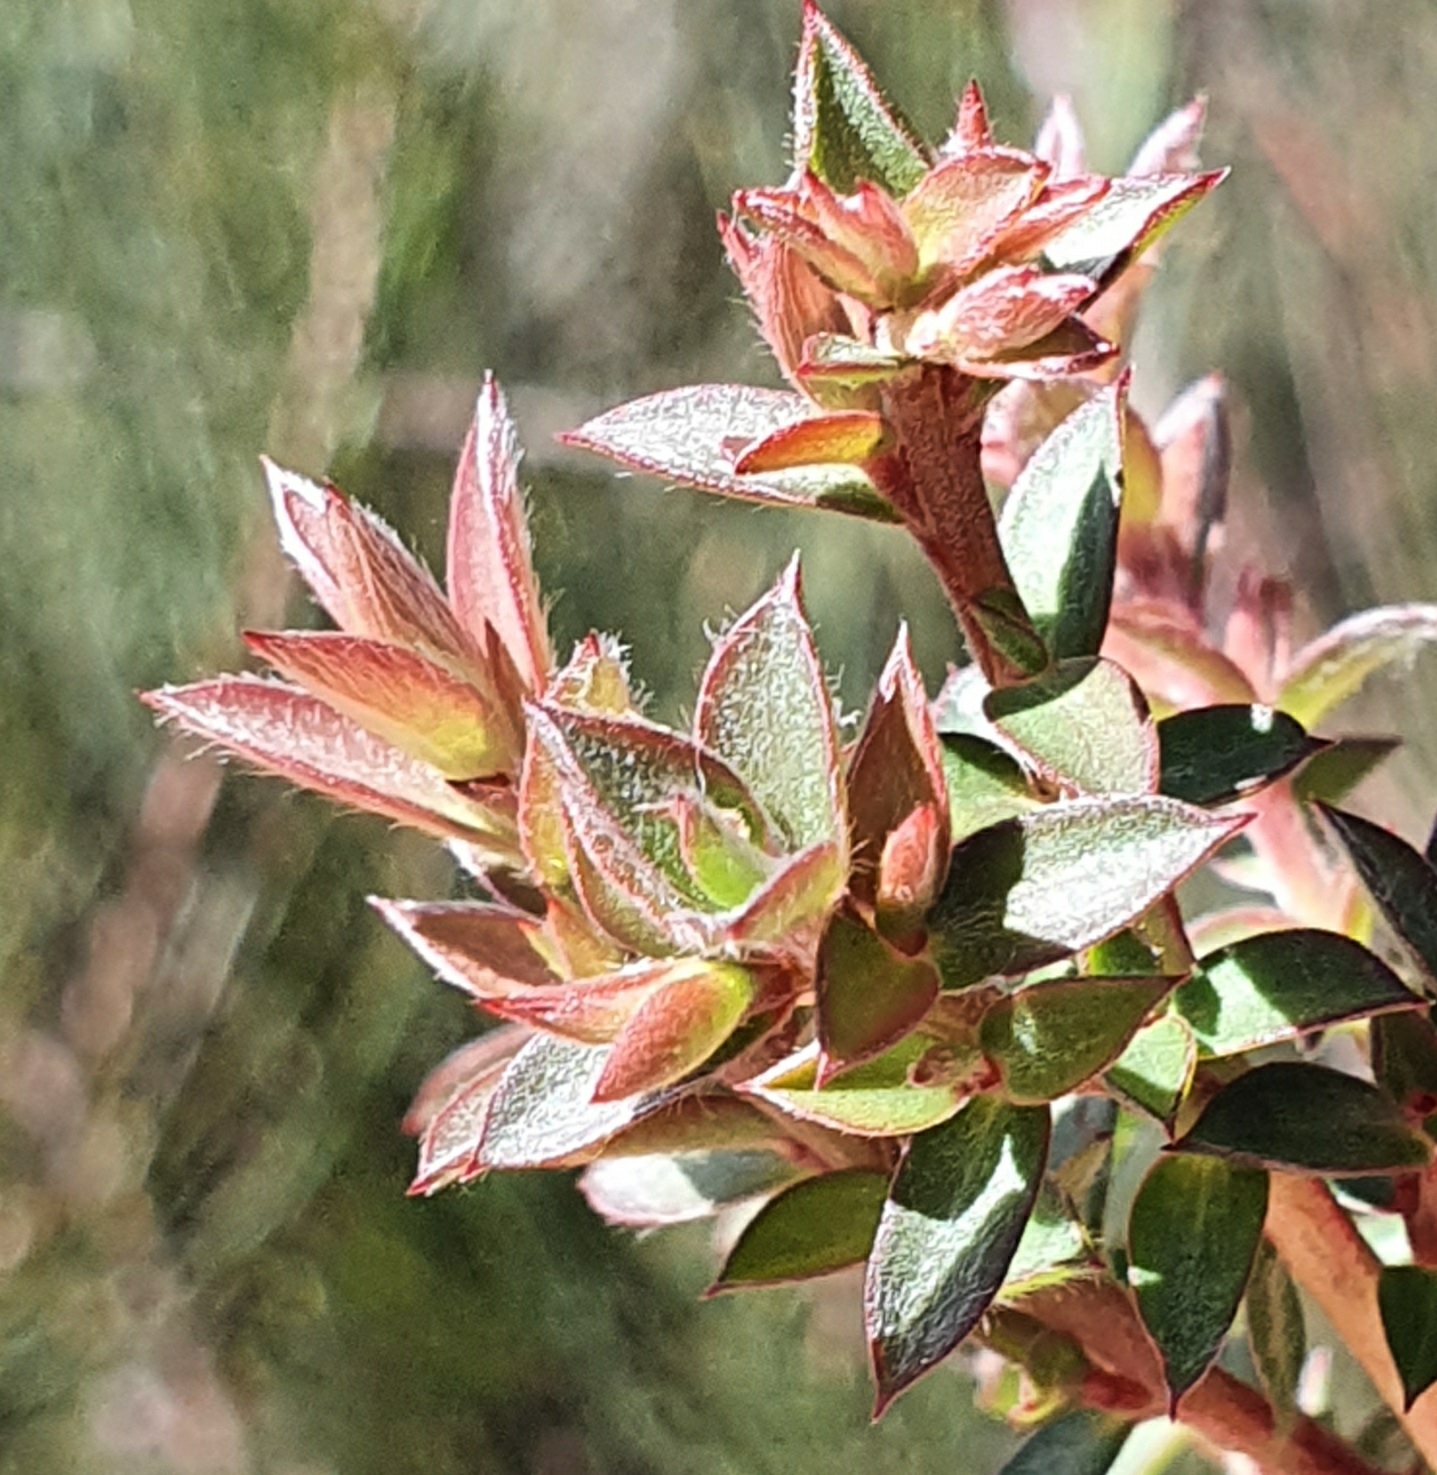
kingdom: Plantae
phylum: Tracheophyta
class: Magnoliopsida
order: Myrtales
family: Myrtaceae
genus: Leptospermum
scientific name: Leptospermum squarrosum
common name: Peach-blossom teatree
